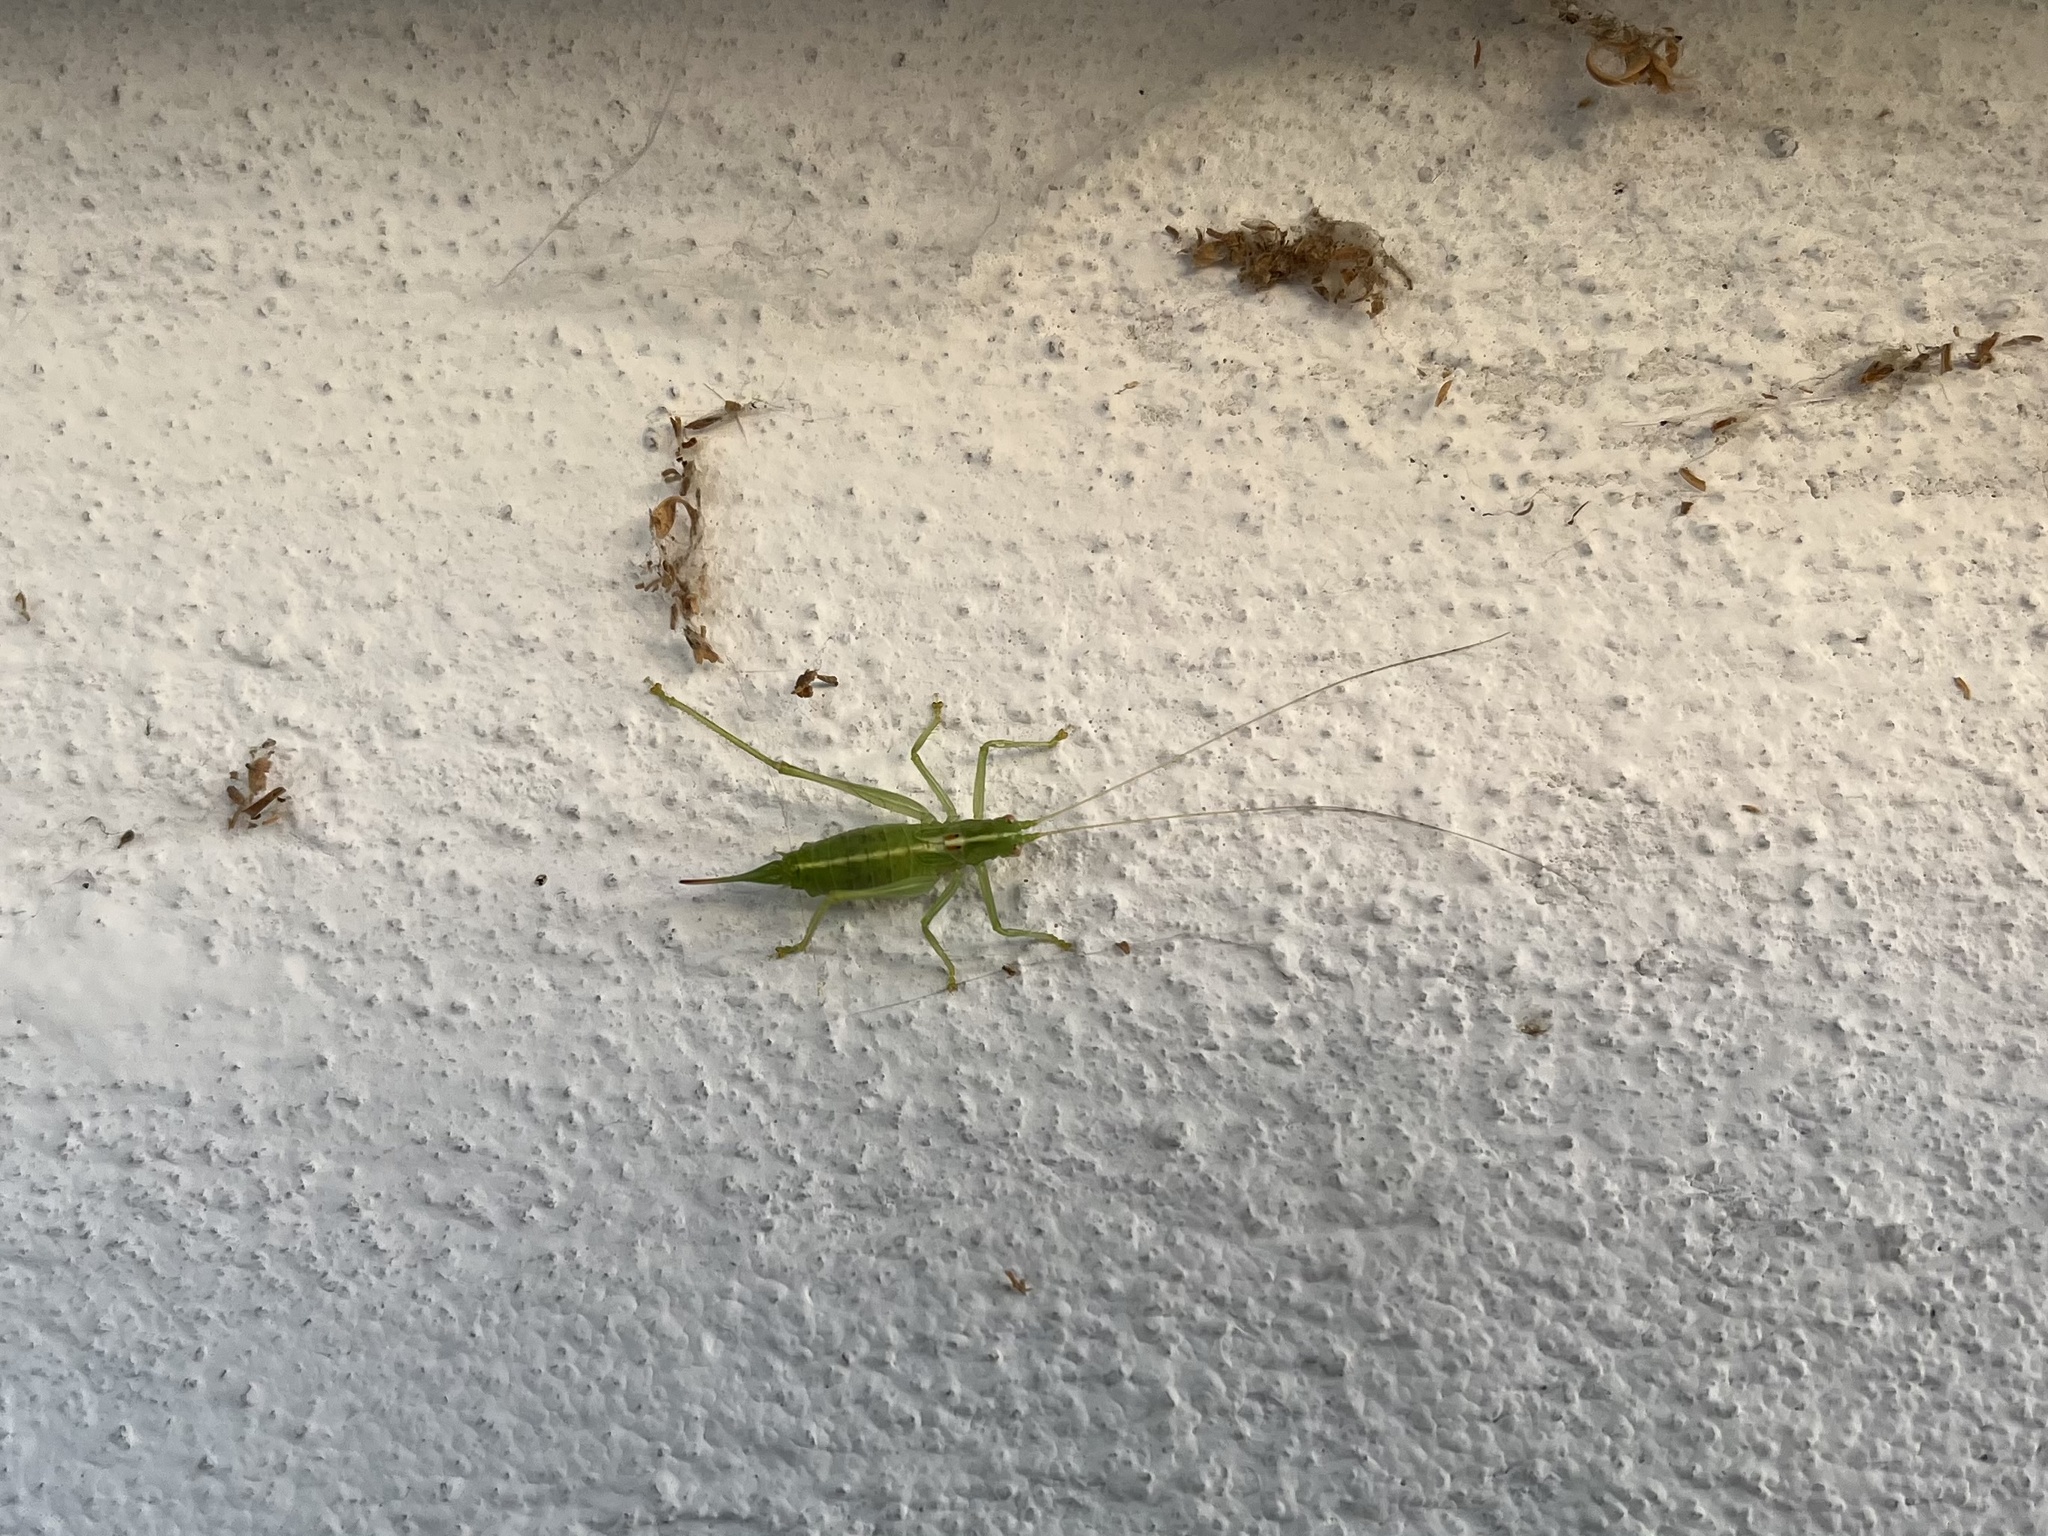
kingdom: Animalia
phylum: Arthropoda
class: Insecta
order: Orthoptera
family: Tettigoniidae
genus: Meconema
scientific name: Meconema meridionale
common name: Southern oak bush-cricket
